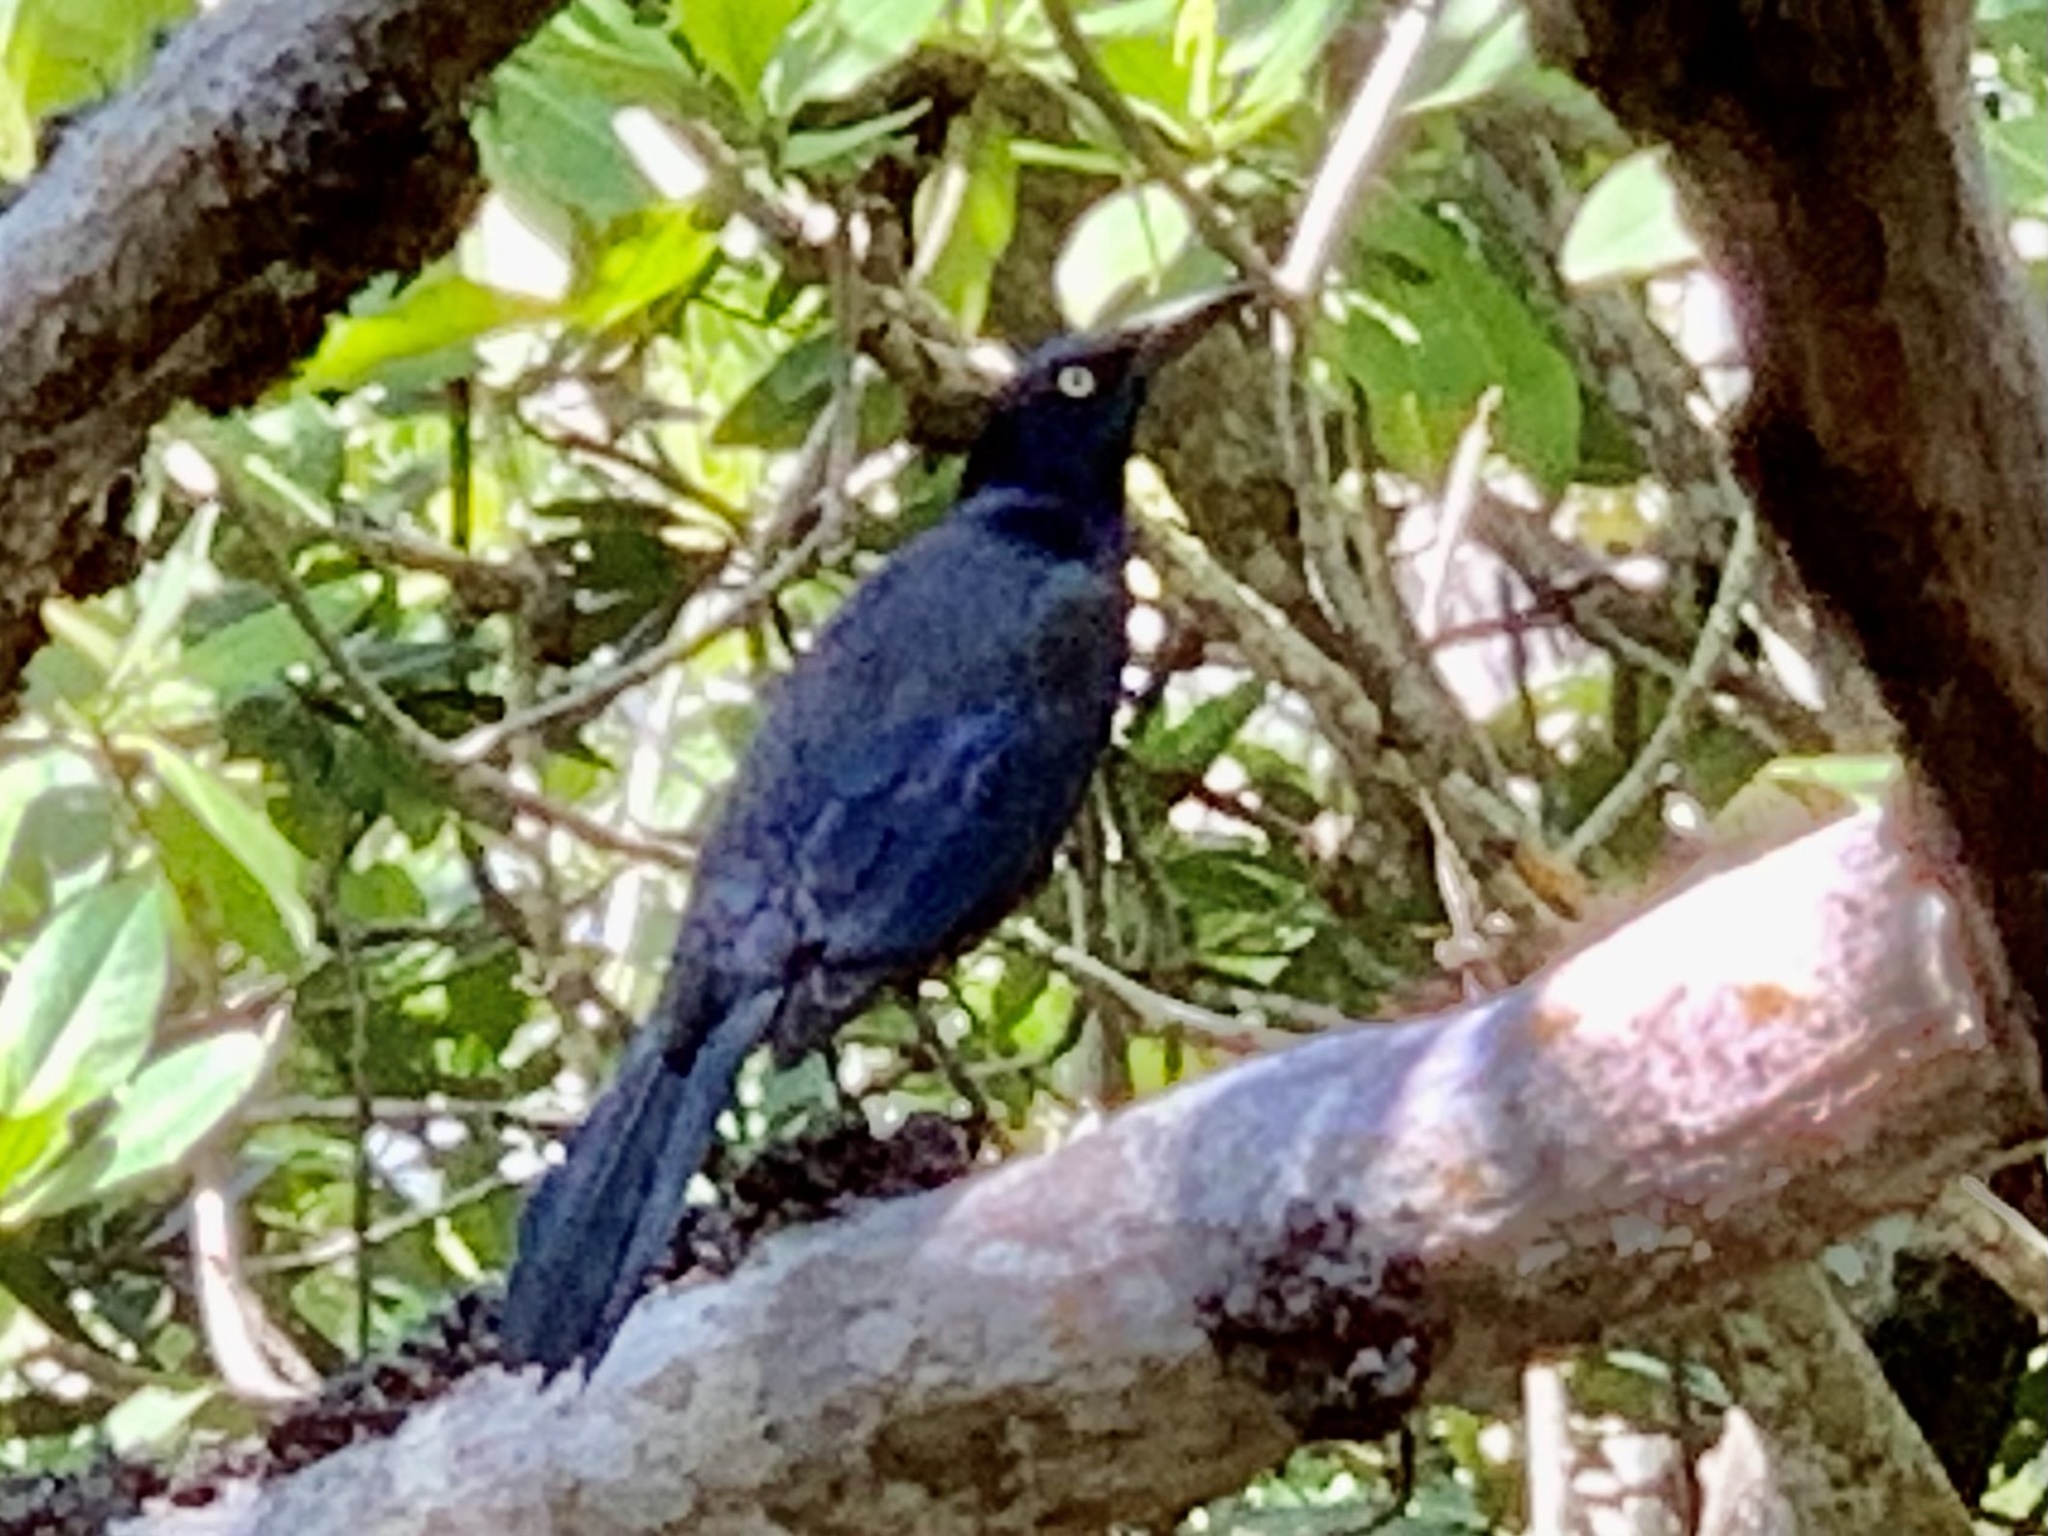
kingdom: Animalia
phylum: Chordata
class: Aves
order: Passeriformes
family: Icteridae
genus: Quiscalus
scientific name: Quiscalus quiscula
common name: Common grackle
